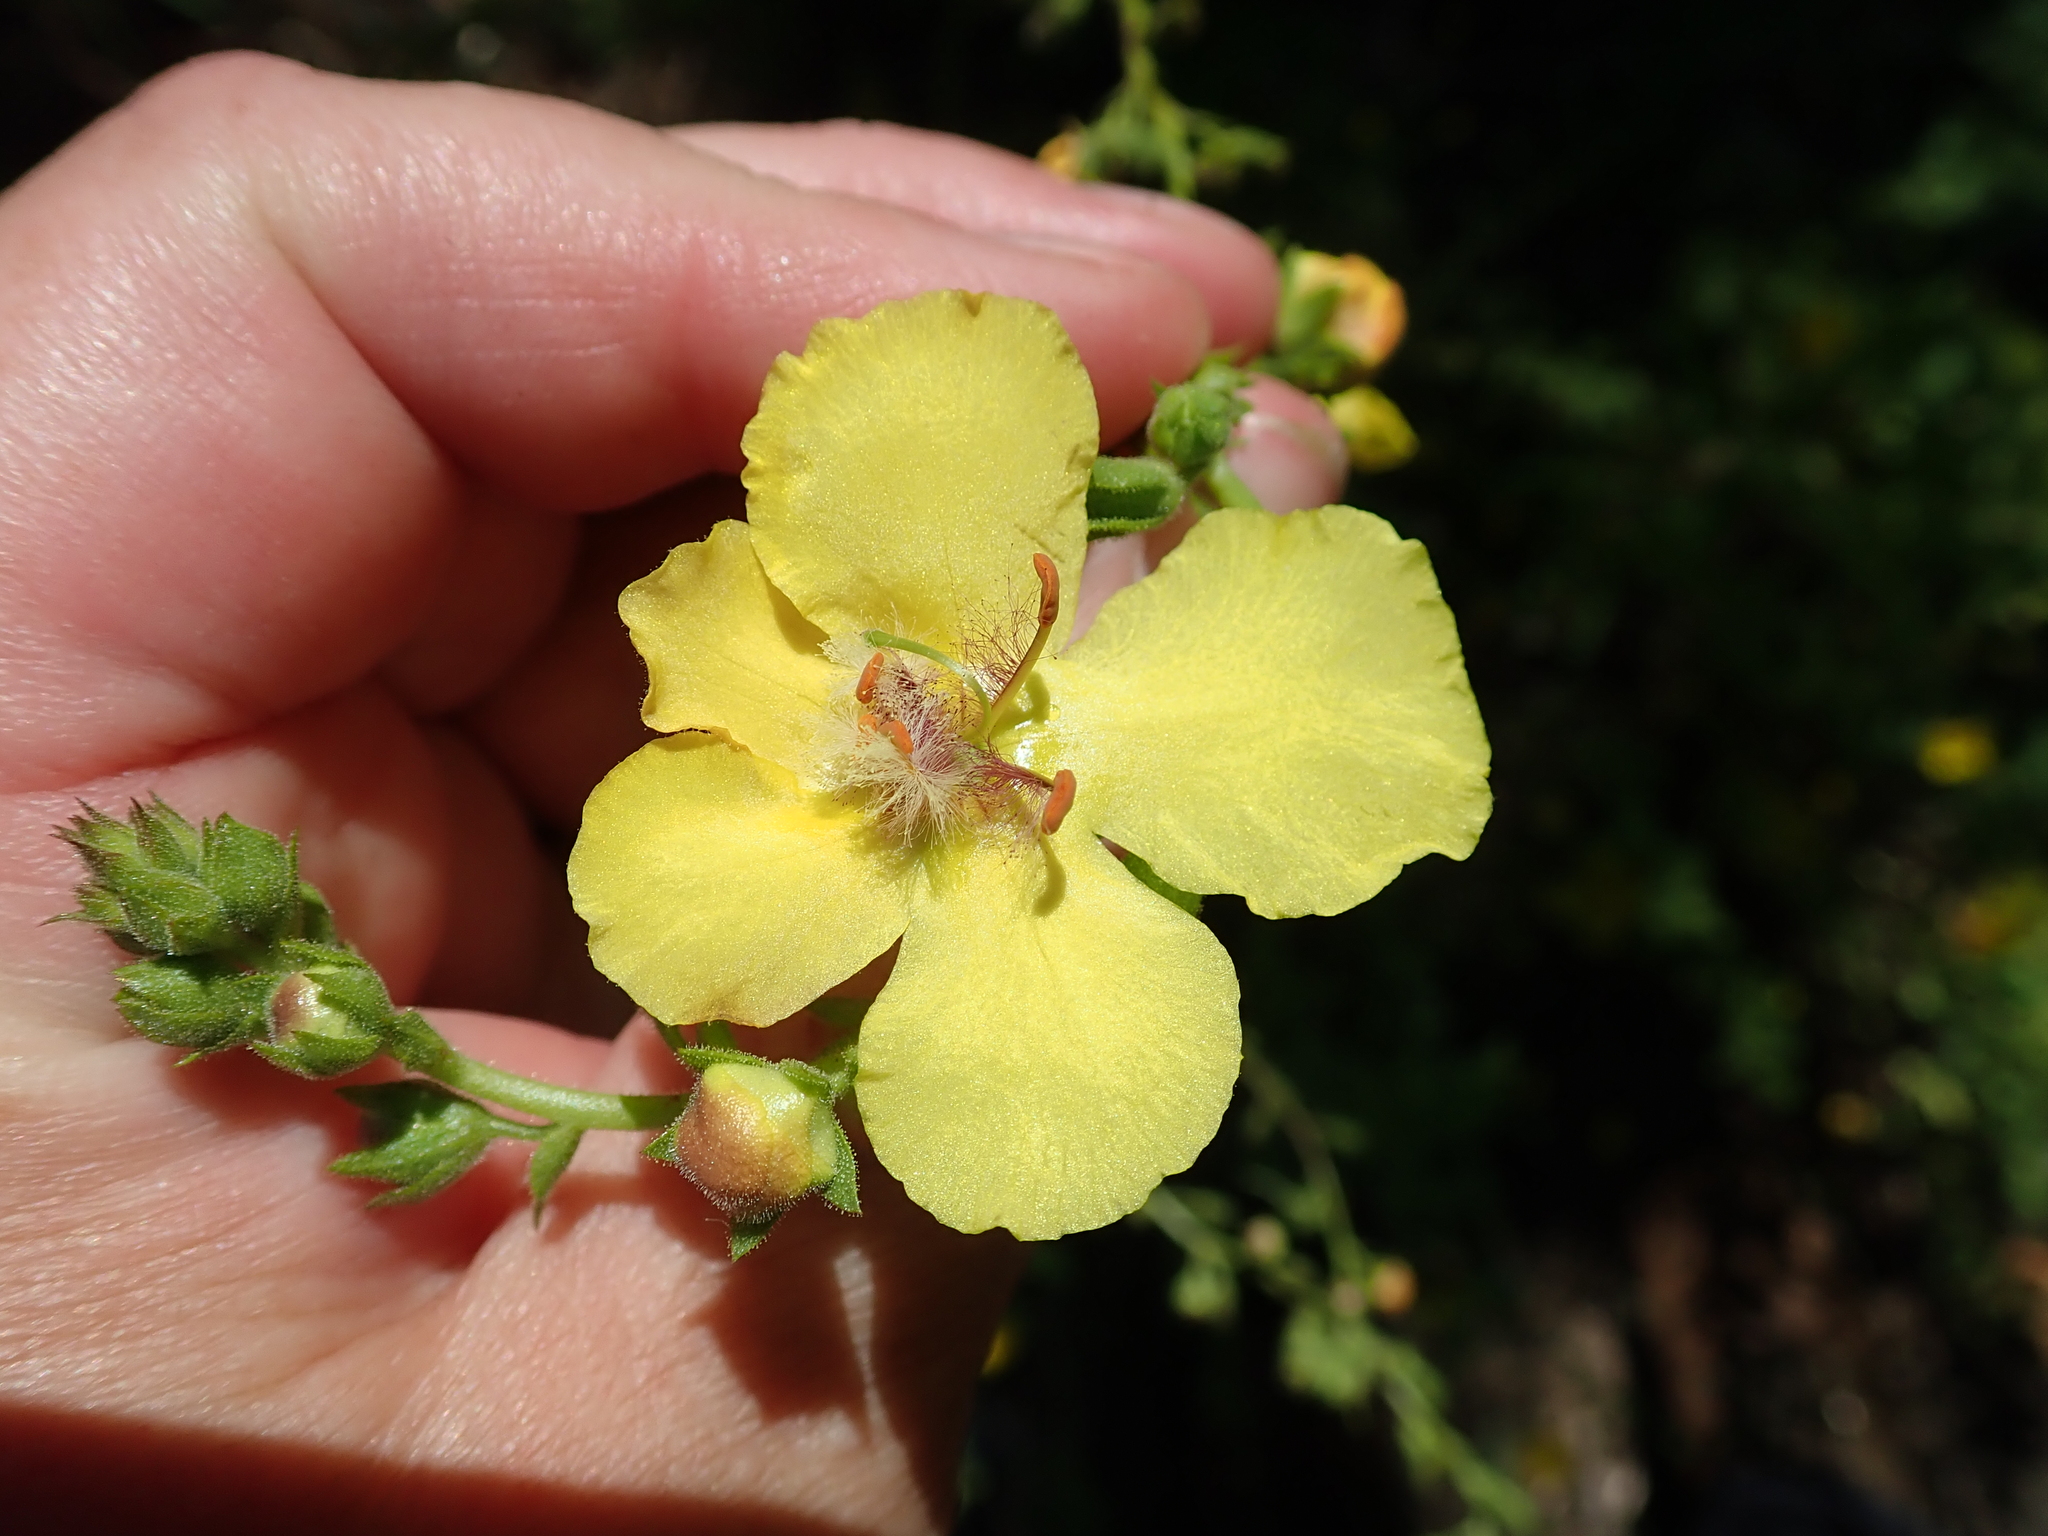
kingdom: Plantae
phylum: Tracheophyta
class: Magnoliopsida
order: Lamiales
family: Scrophulariaceae
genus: Verbascum
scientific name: Verbascum maurum
